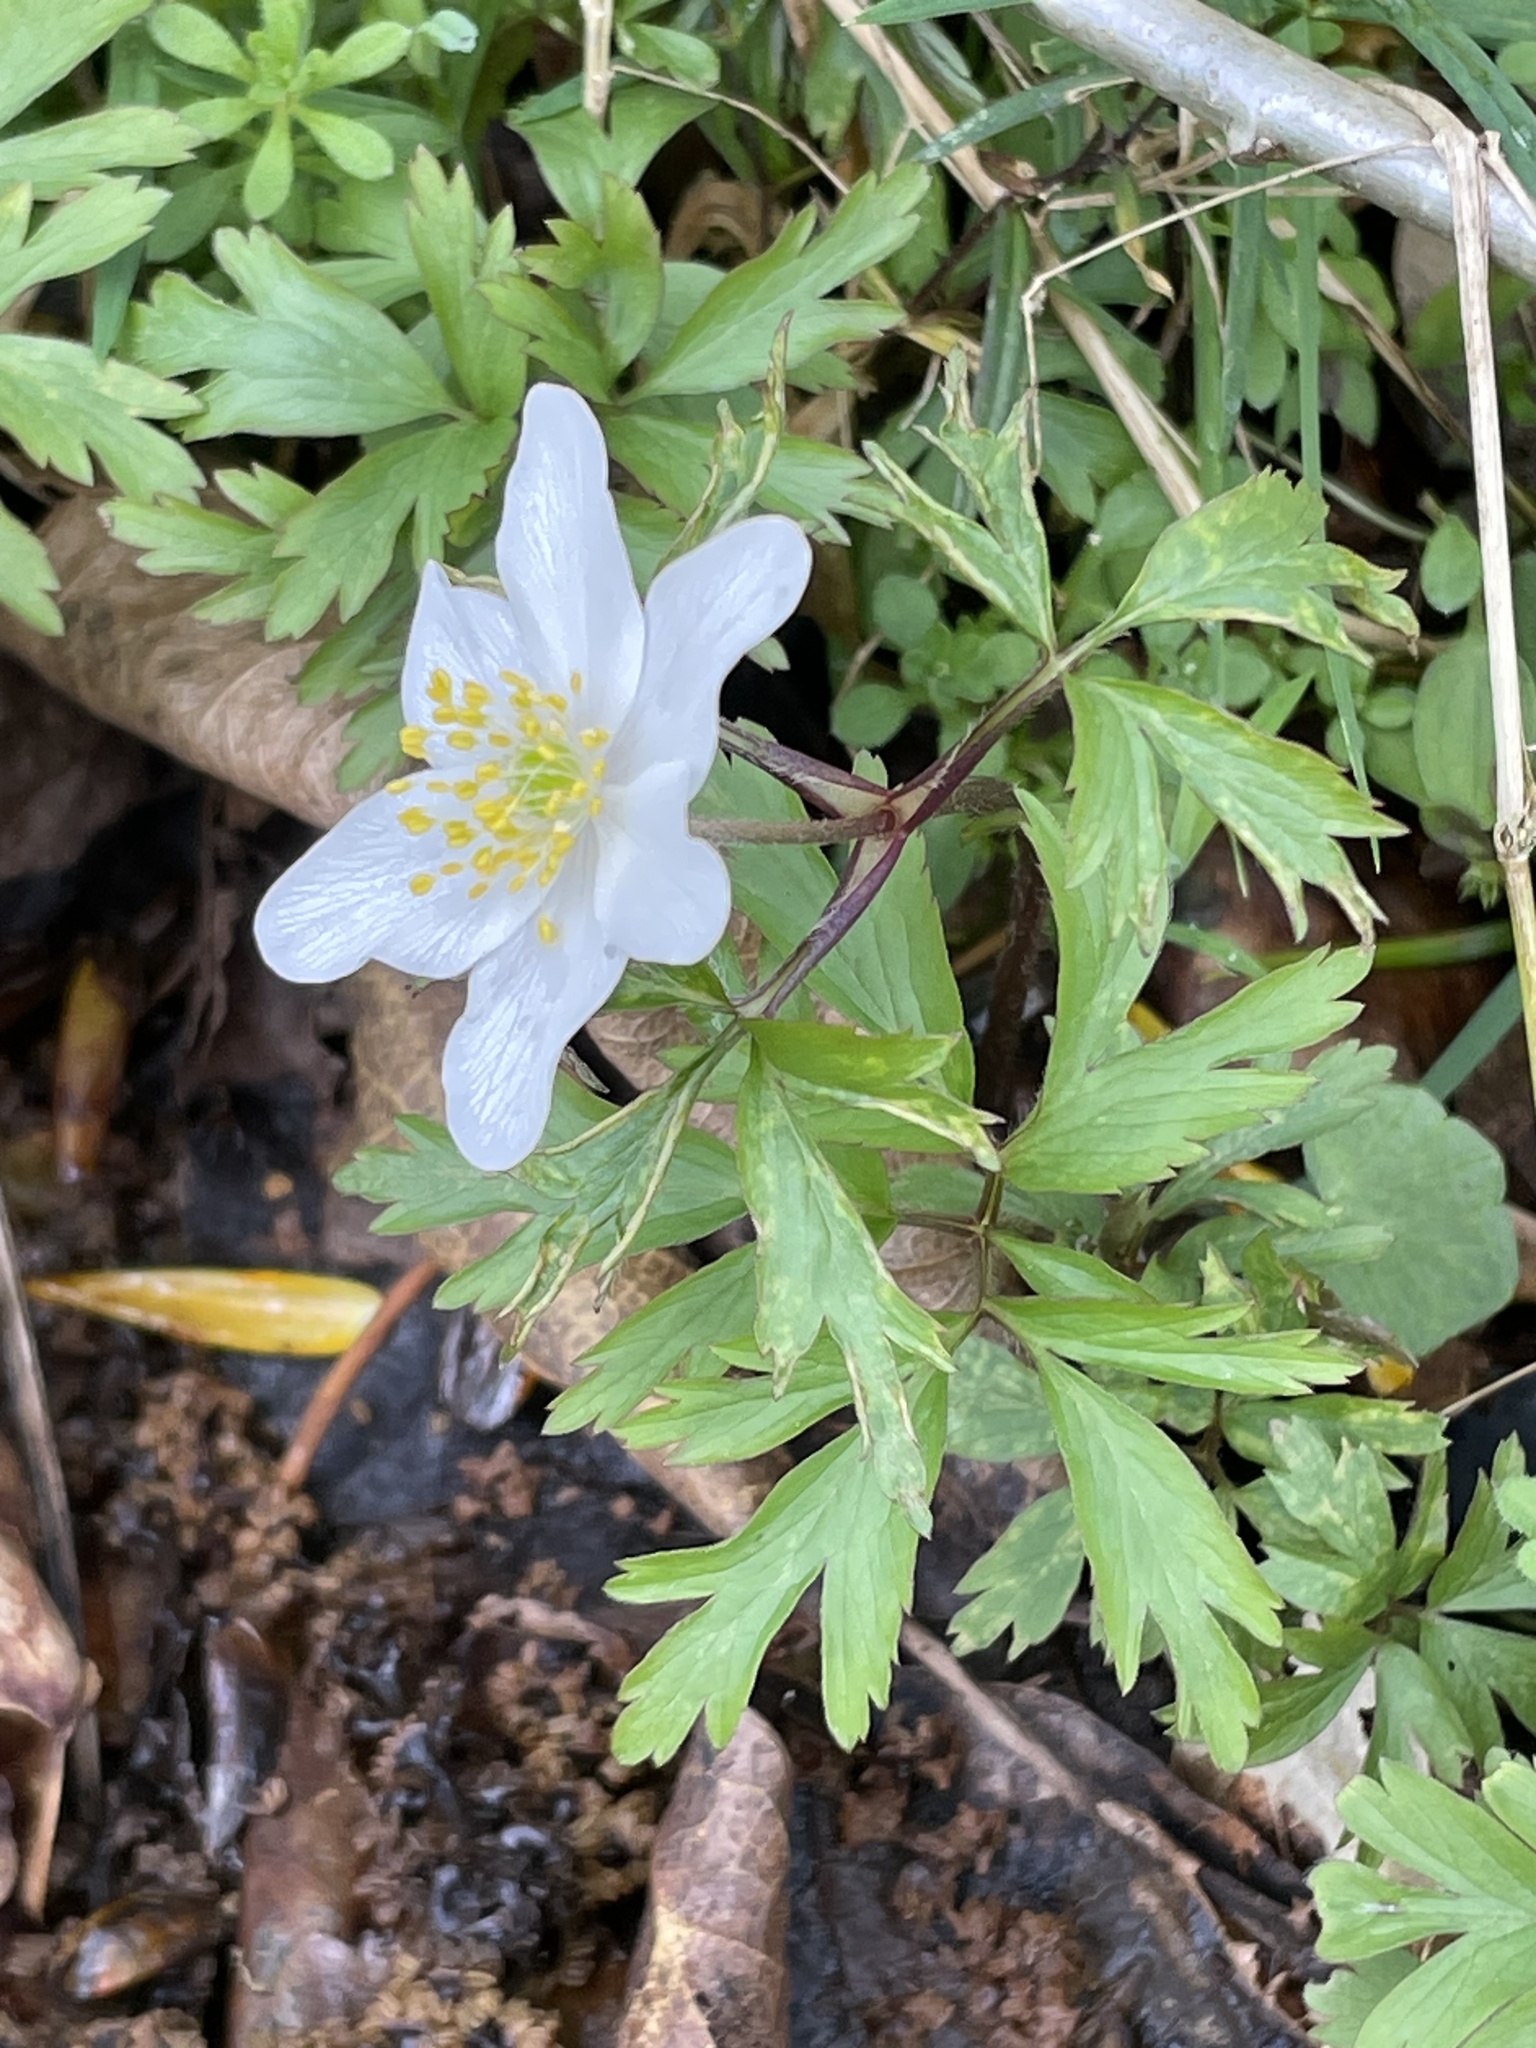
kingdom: Plantae
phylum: Tracheophyta
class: Magnoliopsida
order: Ranunculales
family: Ranunculaceae
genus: Anemone
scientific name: Anemone nemorosa
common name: Wood anemone
